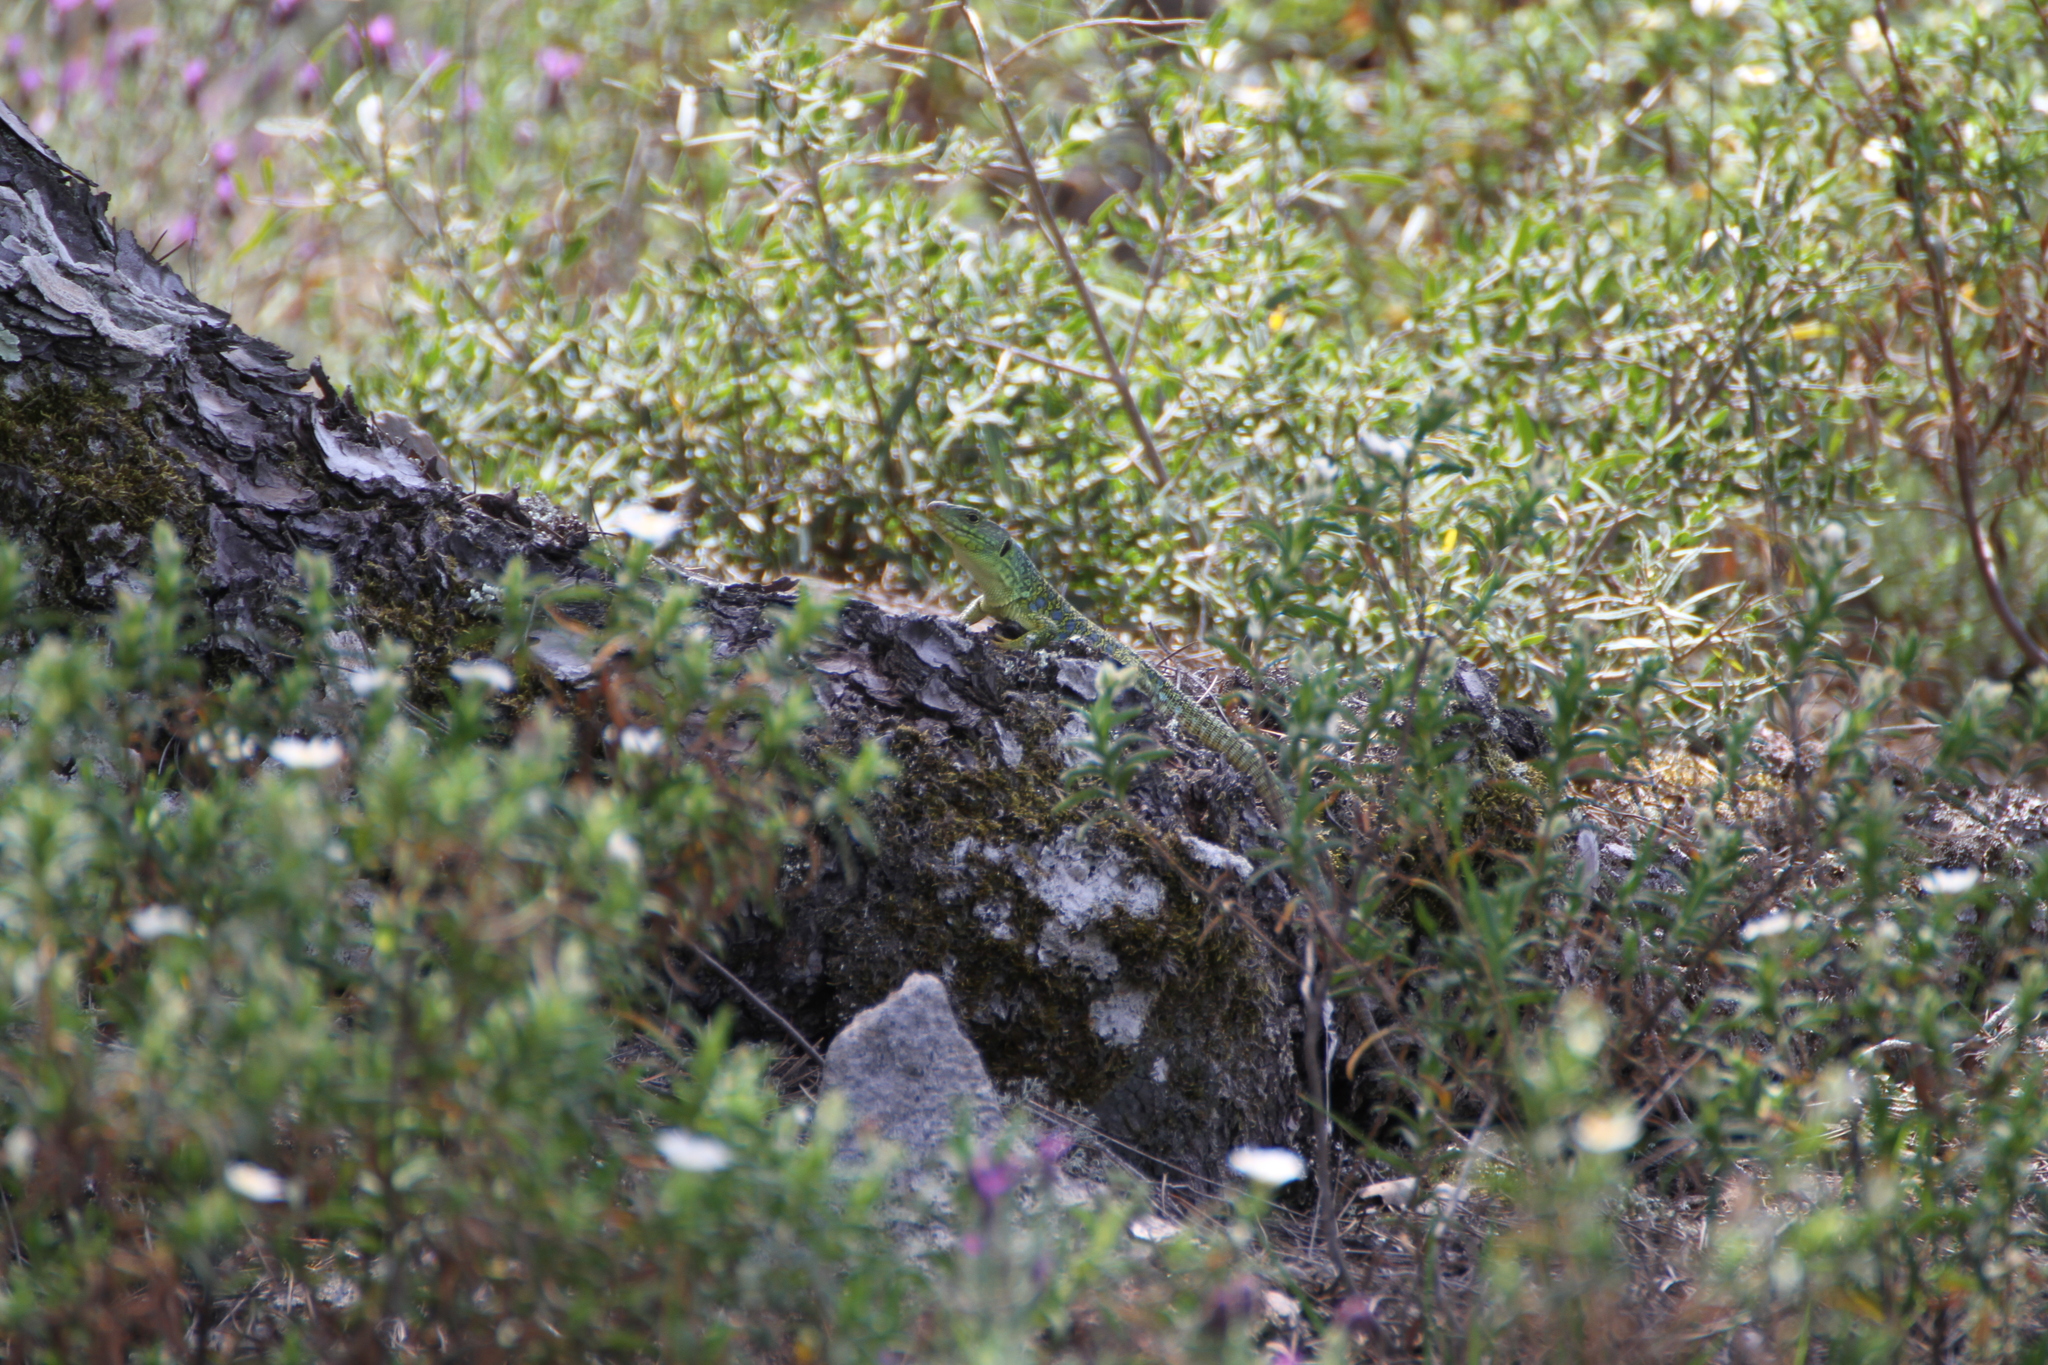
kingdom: Animalia
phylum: Chordata
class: Squamata
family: Lacertidae
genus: Timon
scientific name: Timon lepidus
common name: Ocellated lizard
